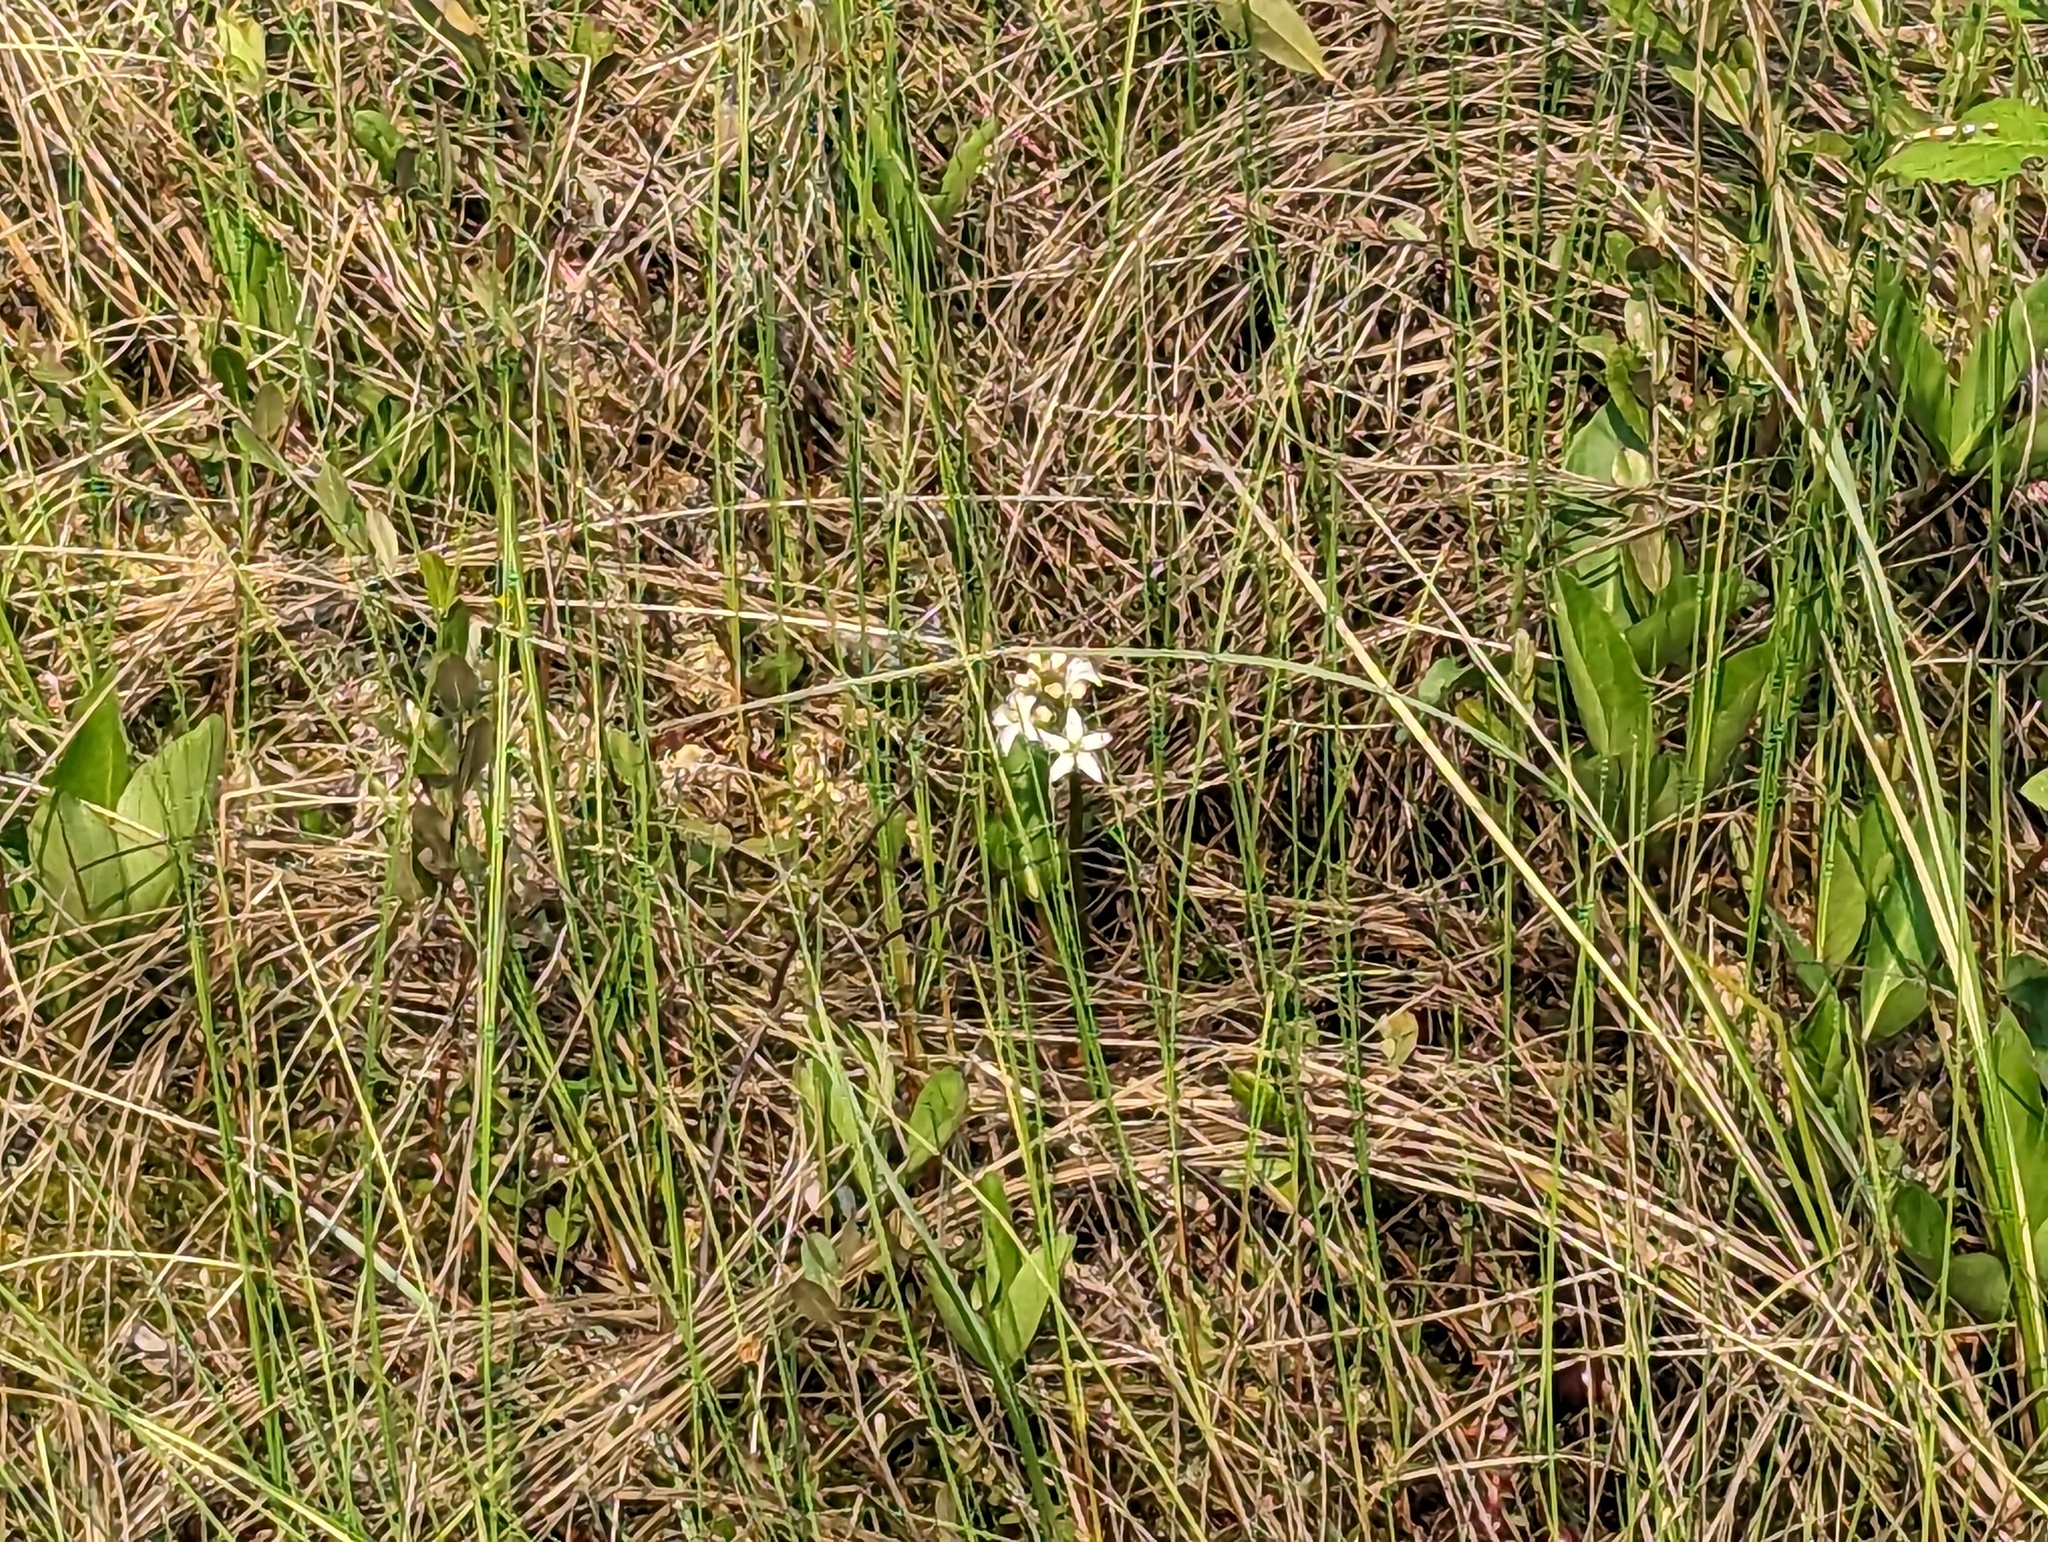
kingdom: Plantae
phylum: Tracheophyta
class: Magnoliopsida
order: Asterales
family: Menyanthaceae
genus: Menyanthes
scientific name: Menyanthes trifoliata
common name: Bogbean
